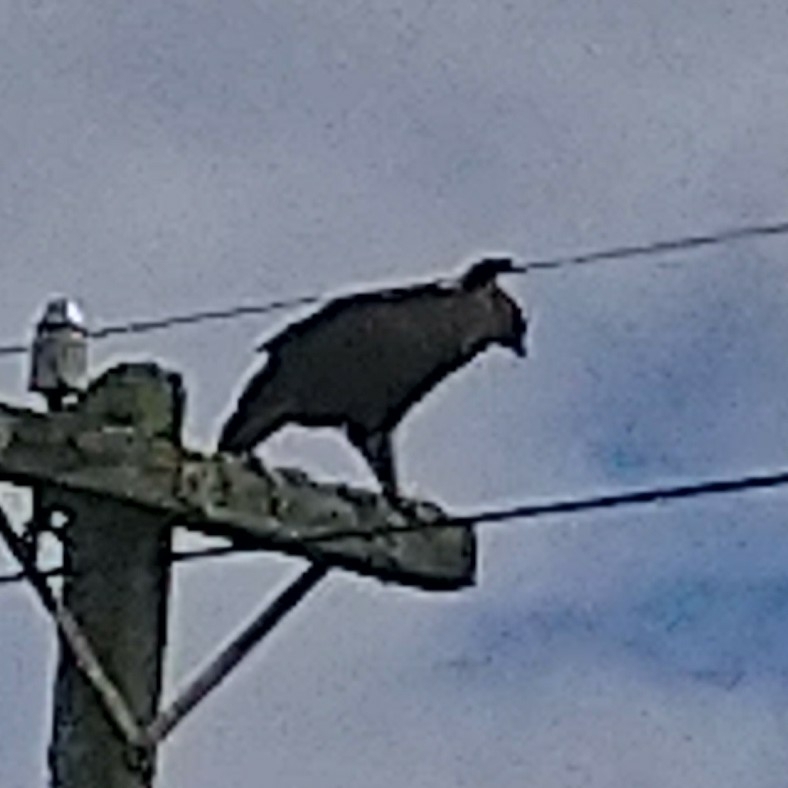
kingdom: Animalia
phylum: Chordata
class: Aves
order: Accipitriformes
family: Accipitridae
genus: Lophaetus
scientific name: Lophaetus occipitalis
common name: Long-crested eagle
